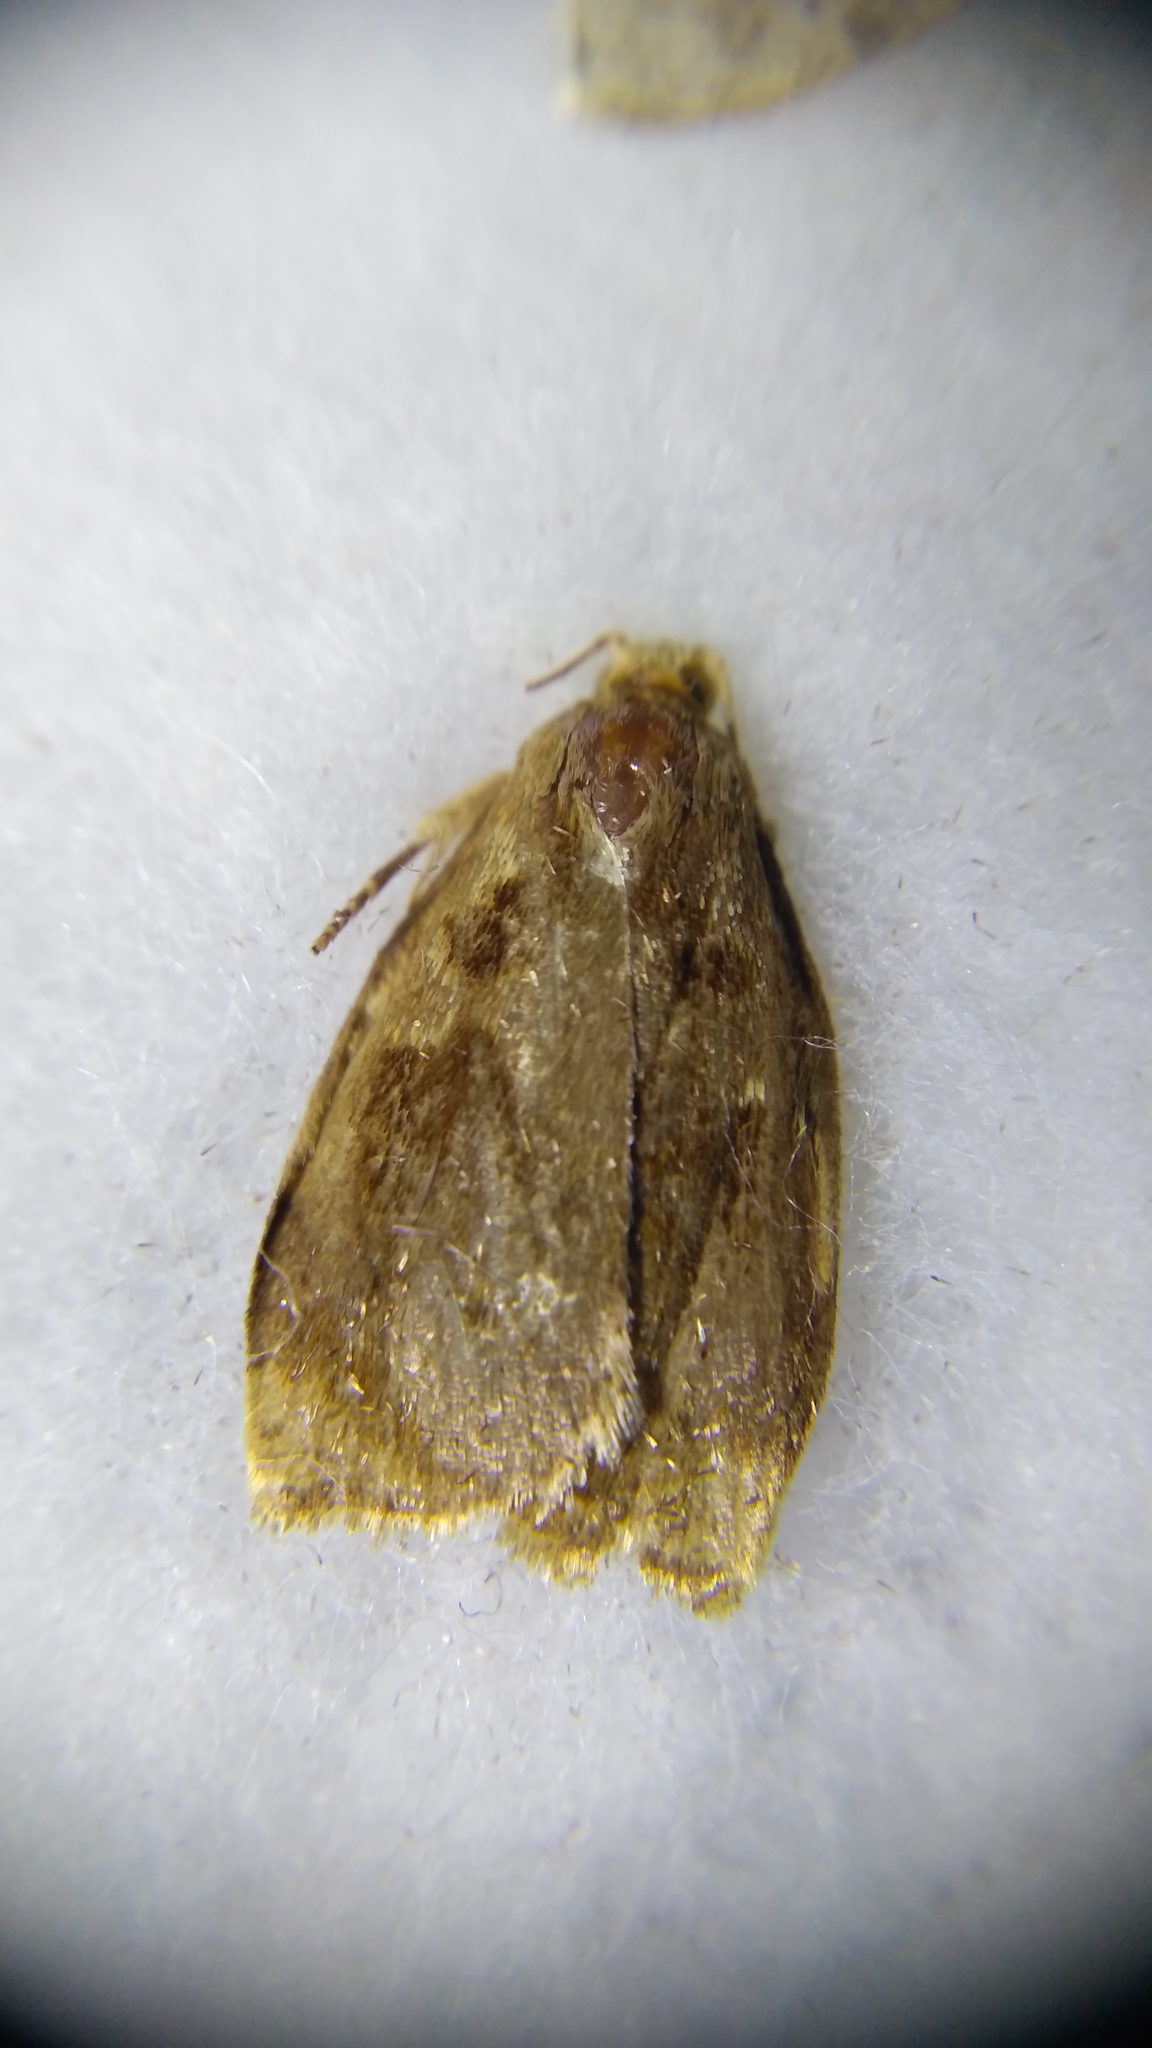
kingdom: Animalia
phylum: Arthropoda
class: Insecta
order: Lepidoptera
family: Tortricidae
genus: Archips
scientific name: Archips crataegana
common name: Brown oak tortrix
